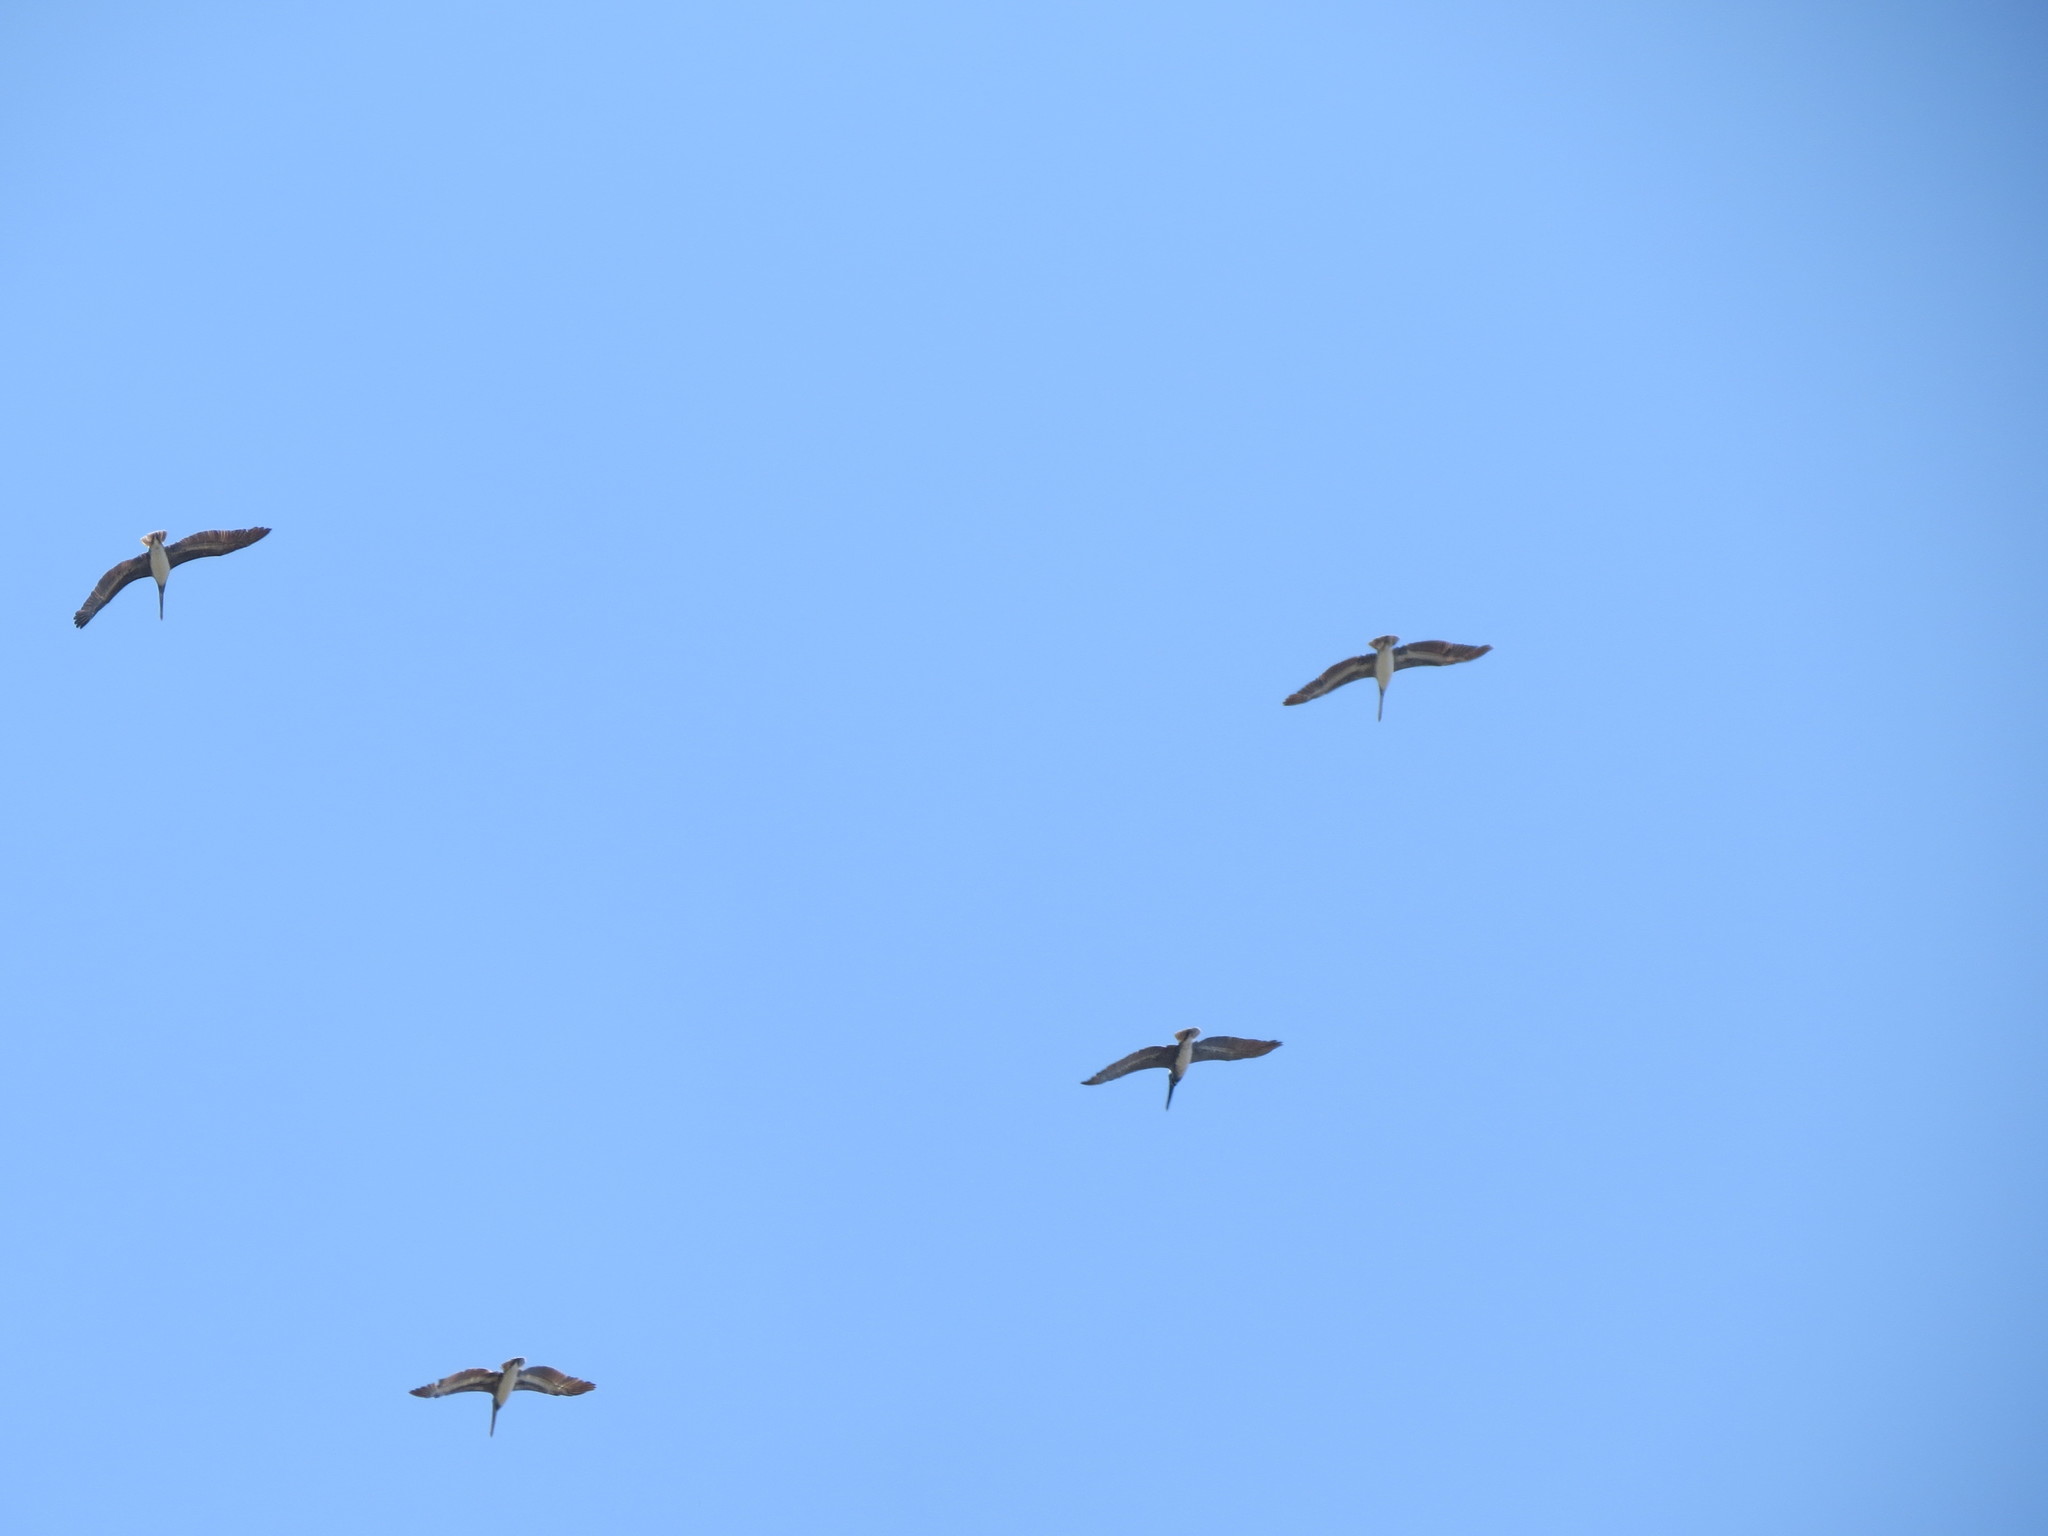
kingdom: Animalia
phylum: Chordata
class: Aves
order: Pelecaniformes
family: Pelecanidae
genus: Pelecanus
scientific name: Pelecanus occidentalis
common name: Brown pelican
